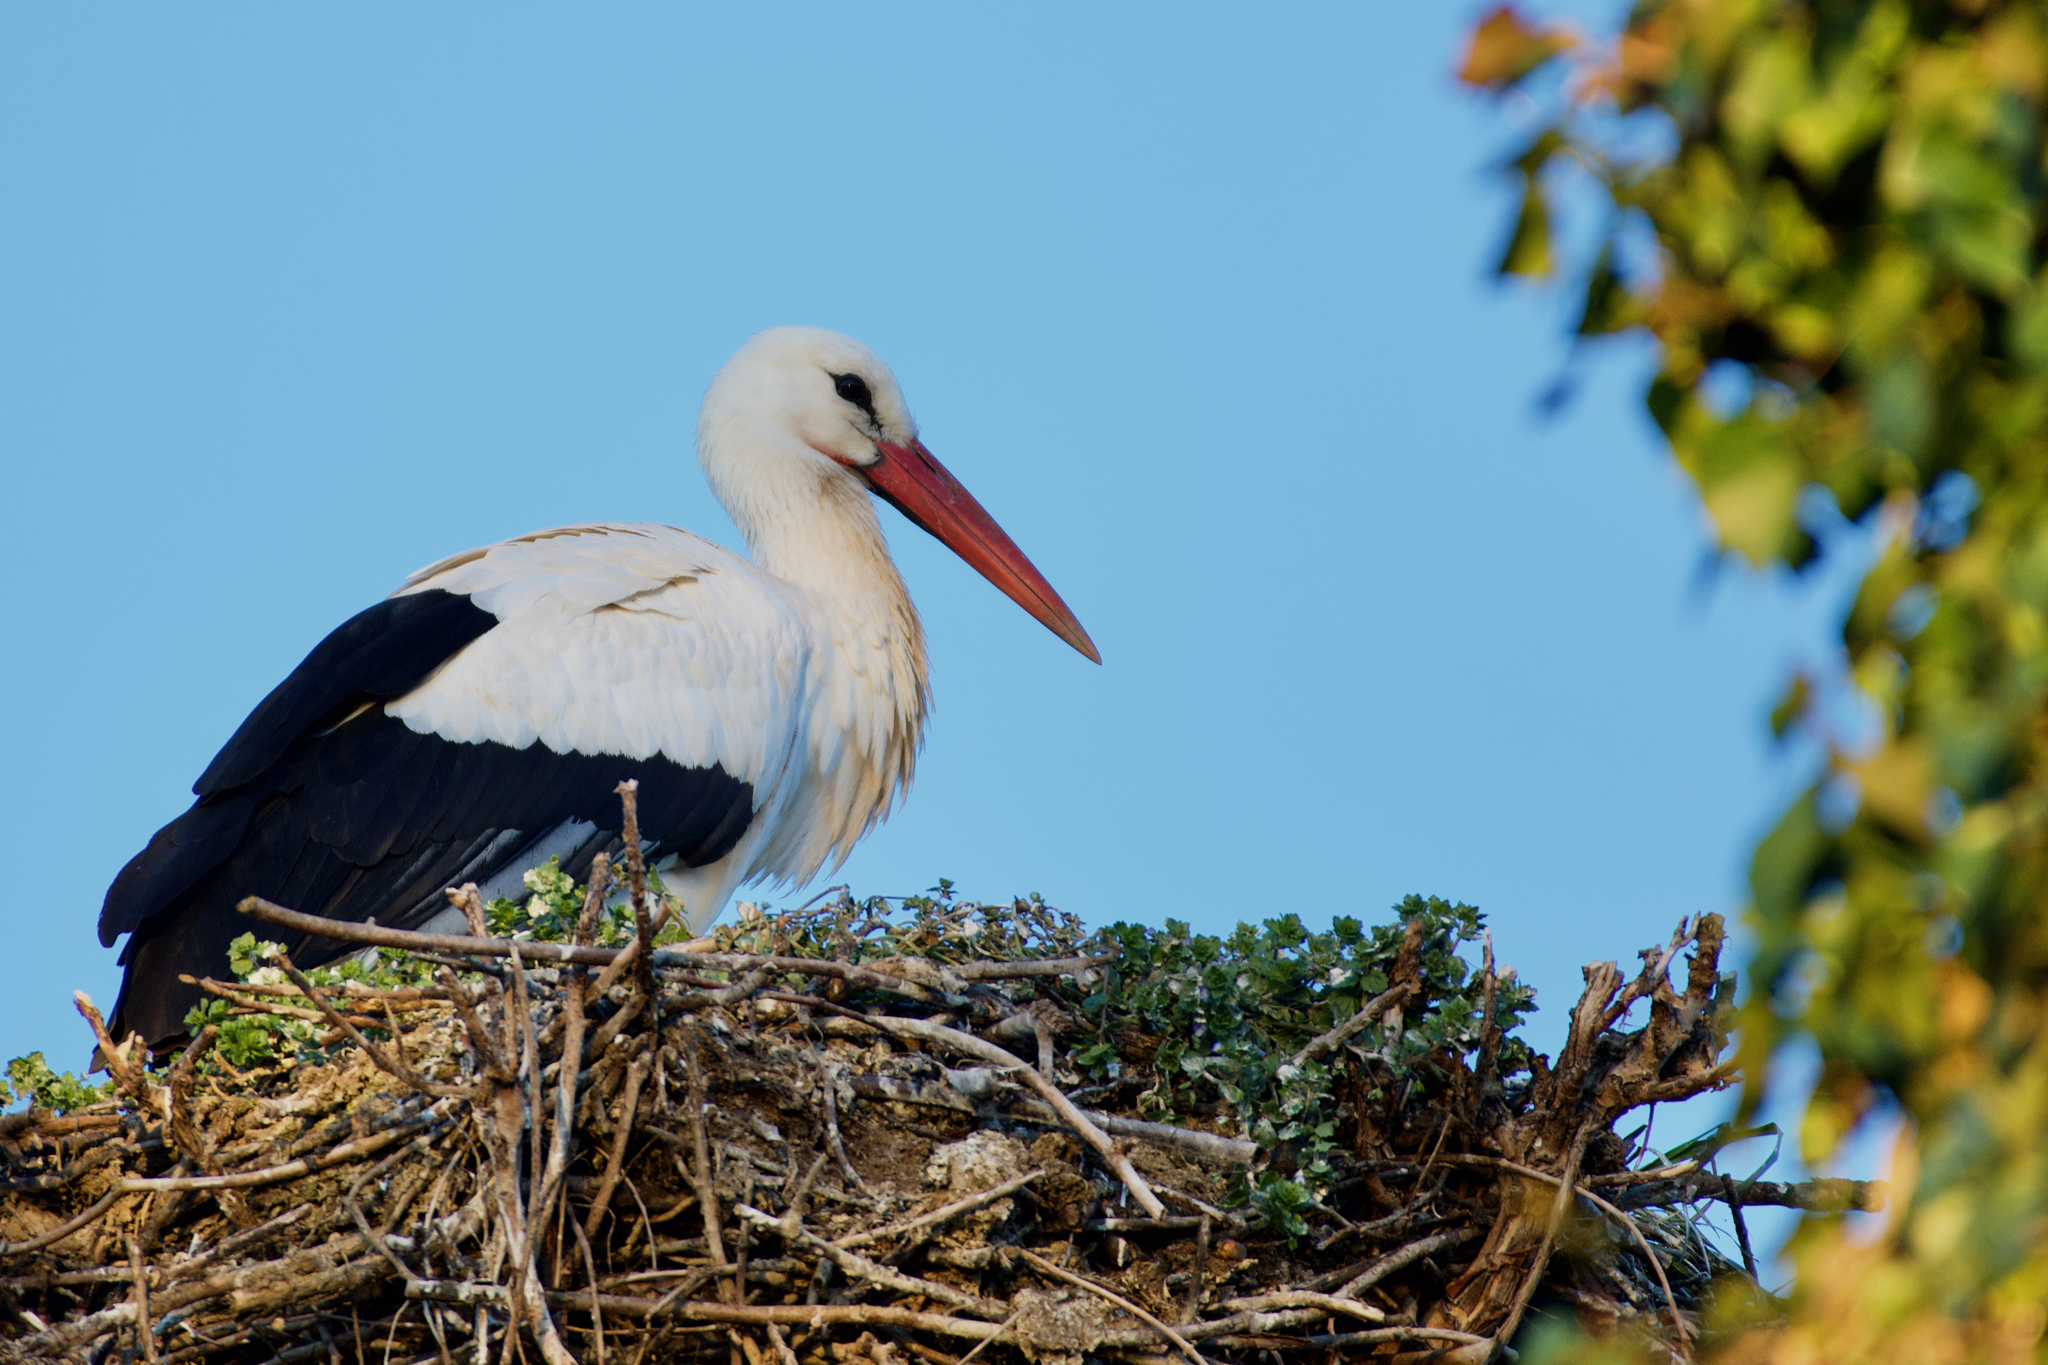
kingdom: Animalia
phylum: Chordata
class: Aves
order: Ciconiiformes
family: Ciconiidae
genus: Ciconia
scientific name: Ciconia ciconia
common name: White stork
